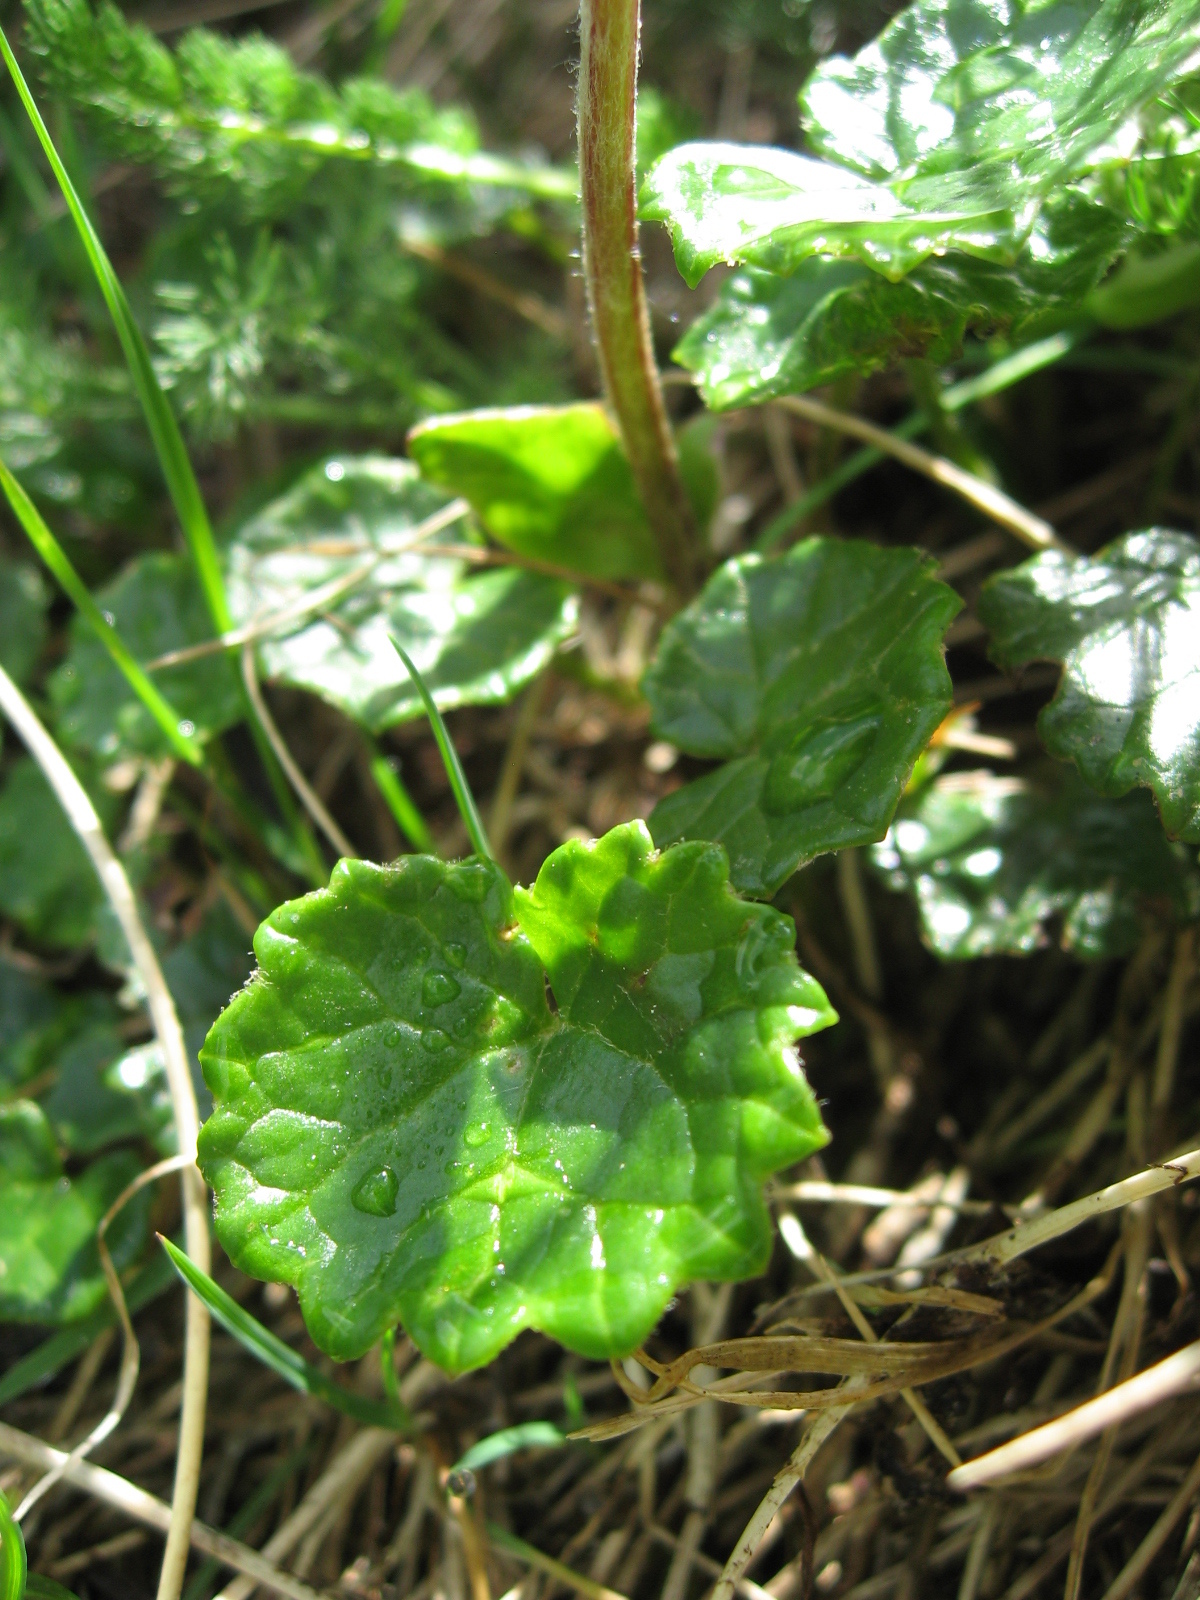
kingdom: Plantae
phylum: Tracheophyta
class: Magnoliopsida
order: Asterales
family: Asteraceae
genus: Homogyne
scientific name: Homogyne alpina
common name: Purple colt's-foot
